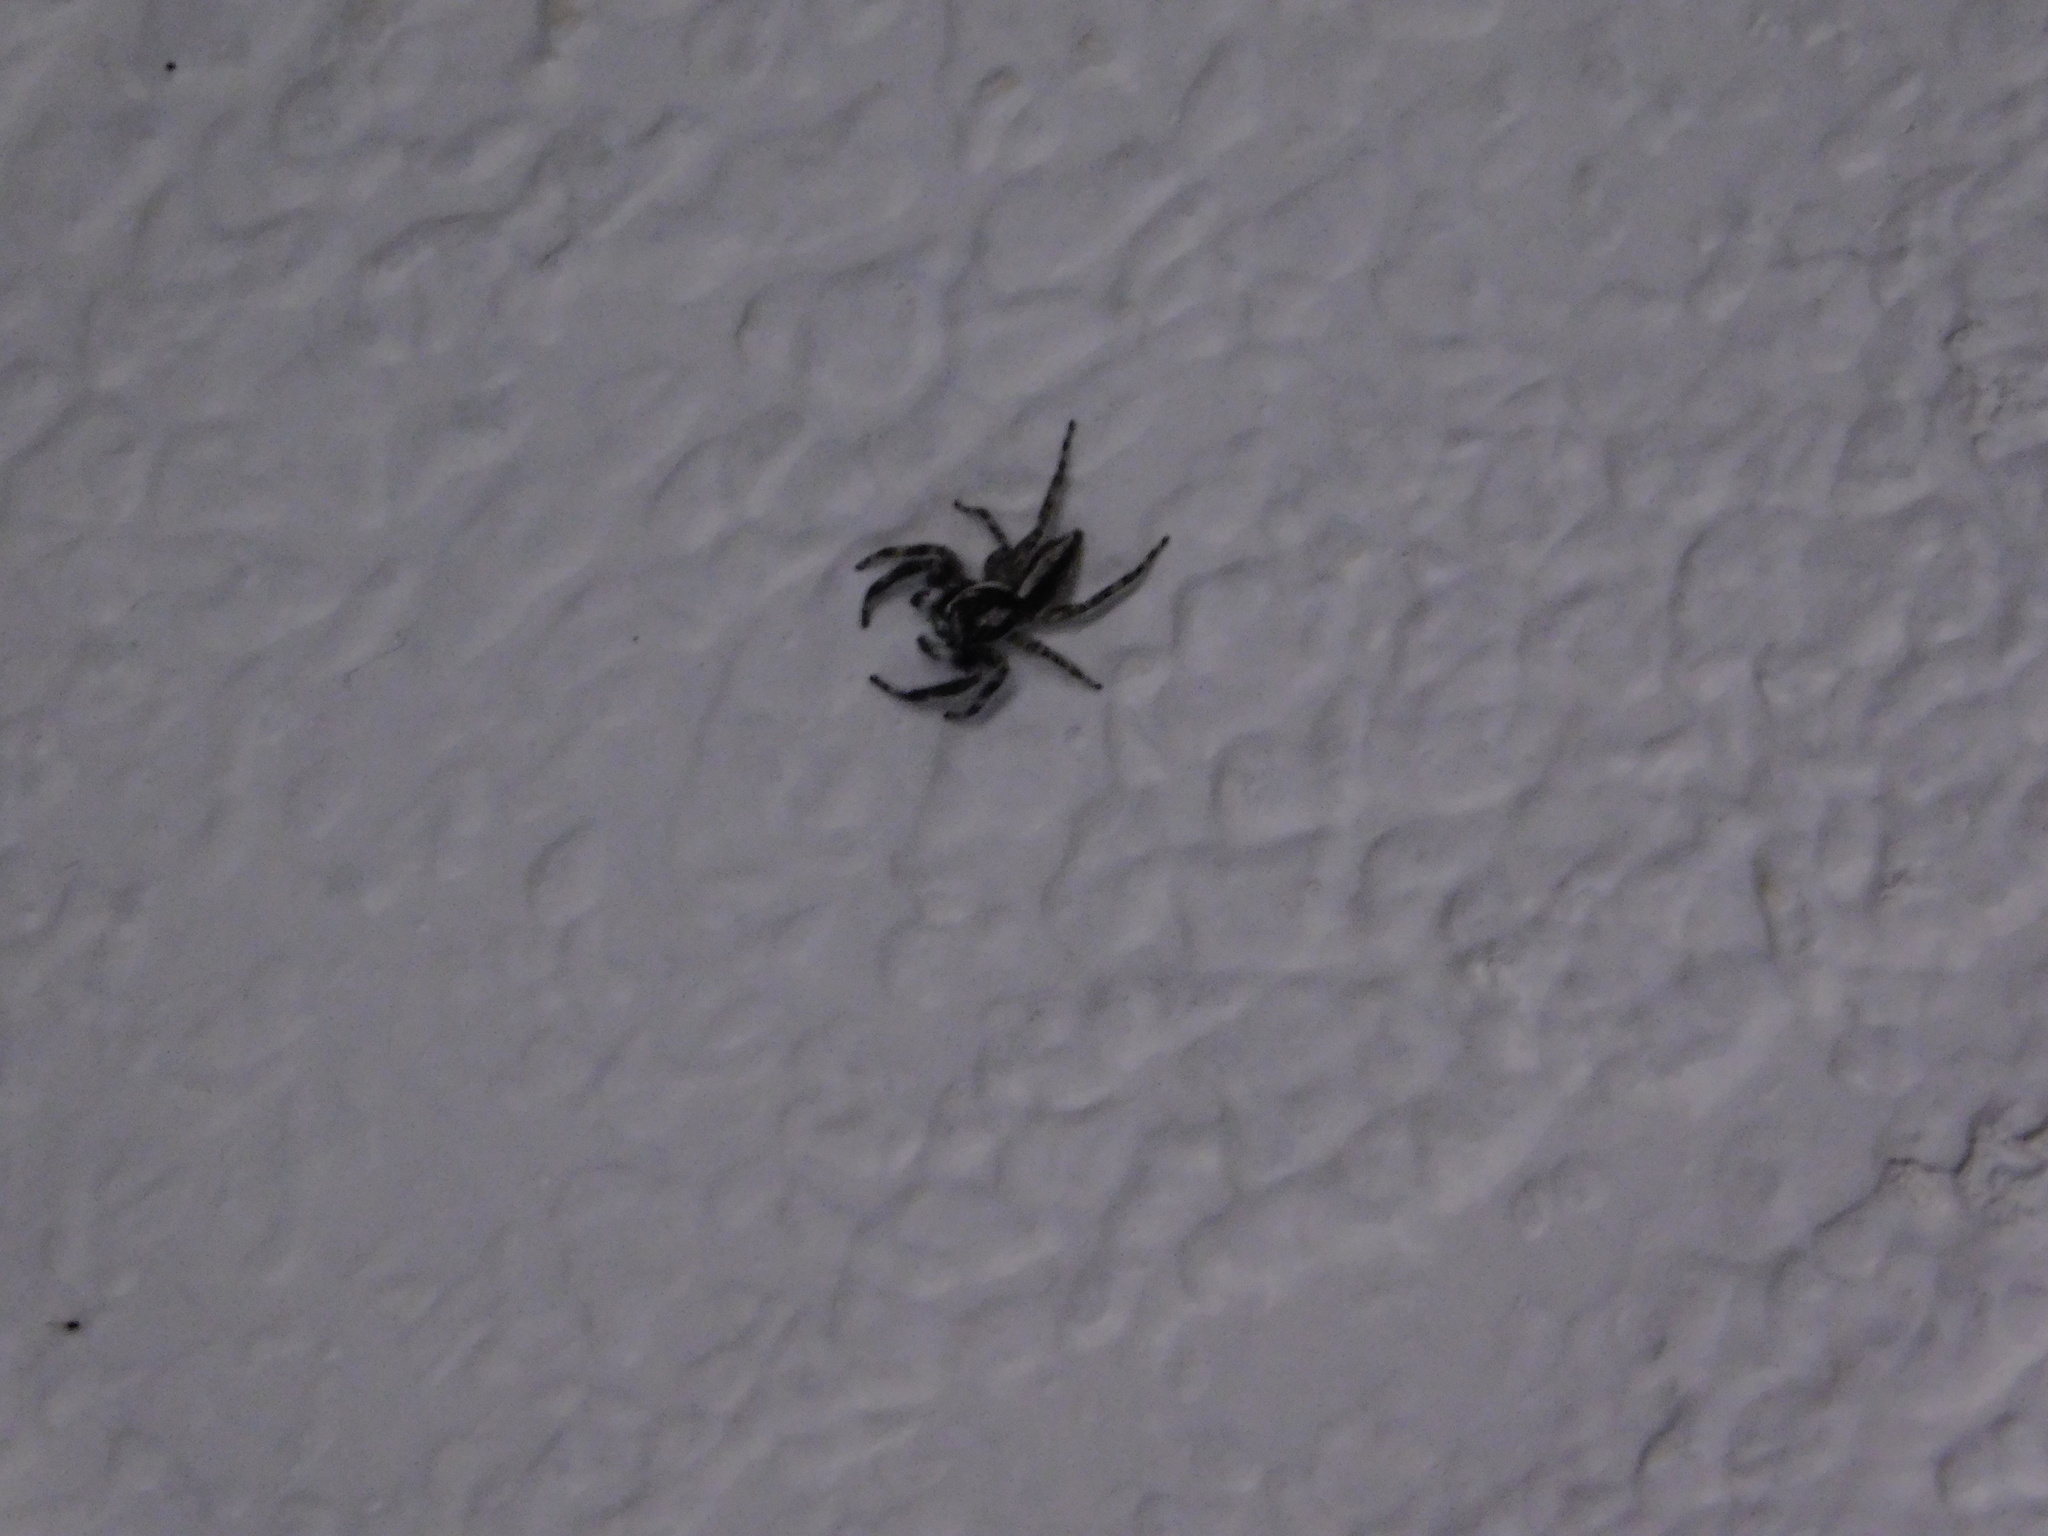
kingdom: Animalia
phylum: Arthropoda
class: Arachnida
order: Araneae
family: Salticidae
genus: Menemerus
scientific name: Menemerus bivittatus
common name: Gray wall jumper
